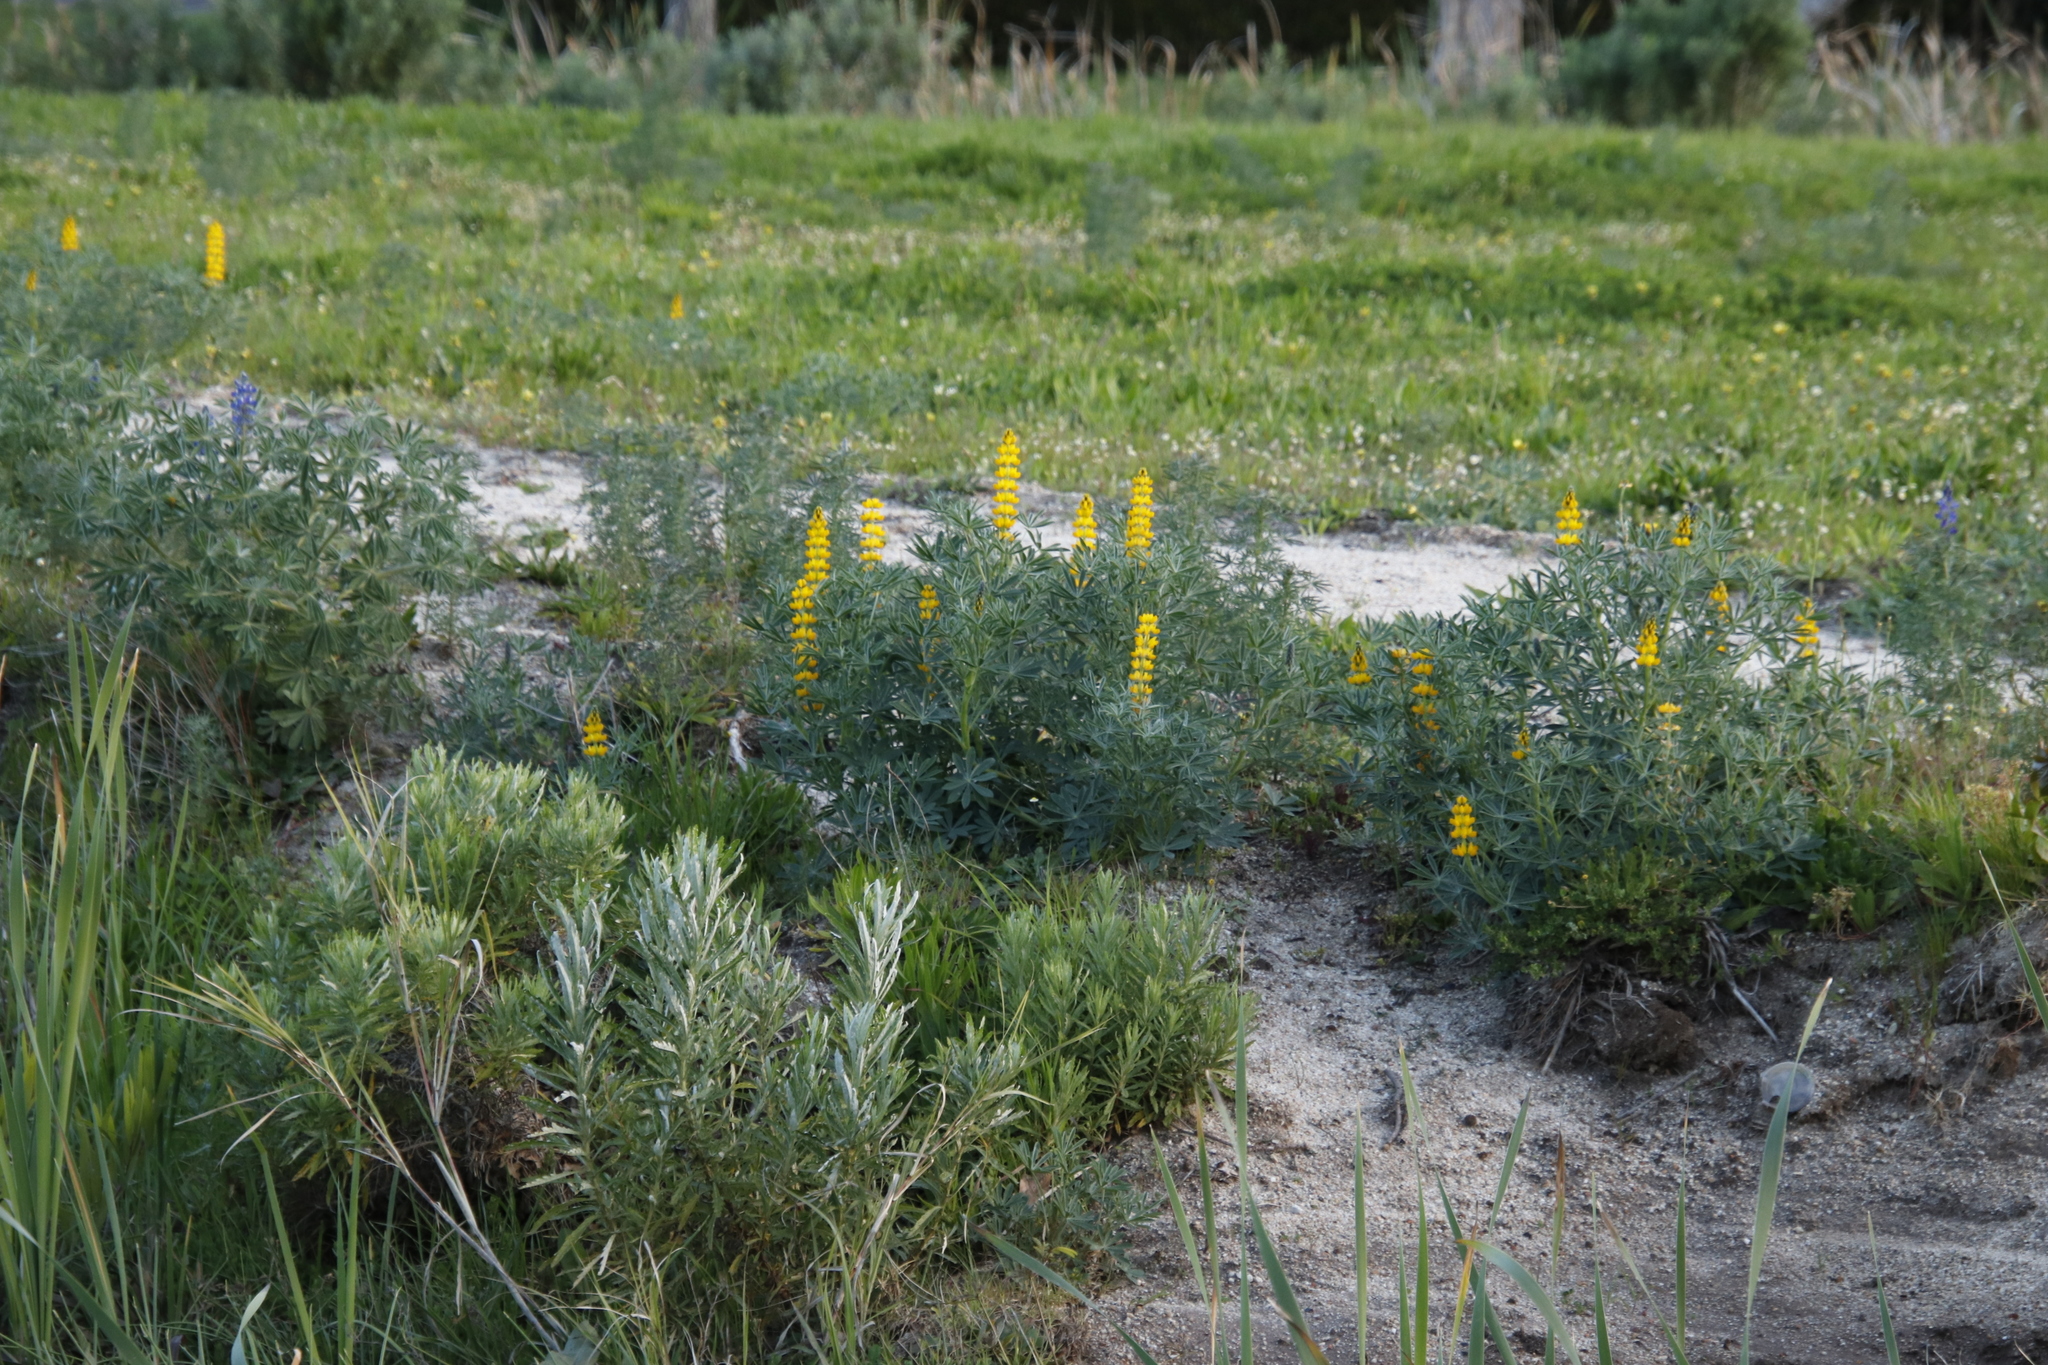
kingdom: Plantae
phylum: Tracheophyta
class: Magnoliopsida
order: Fabales
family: Fabaceae
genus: Lupinus
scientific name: Lupinus luteus
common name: European yellow lupine
